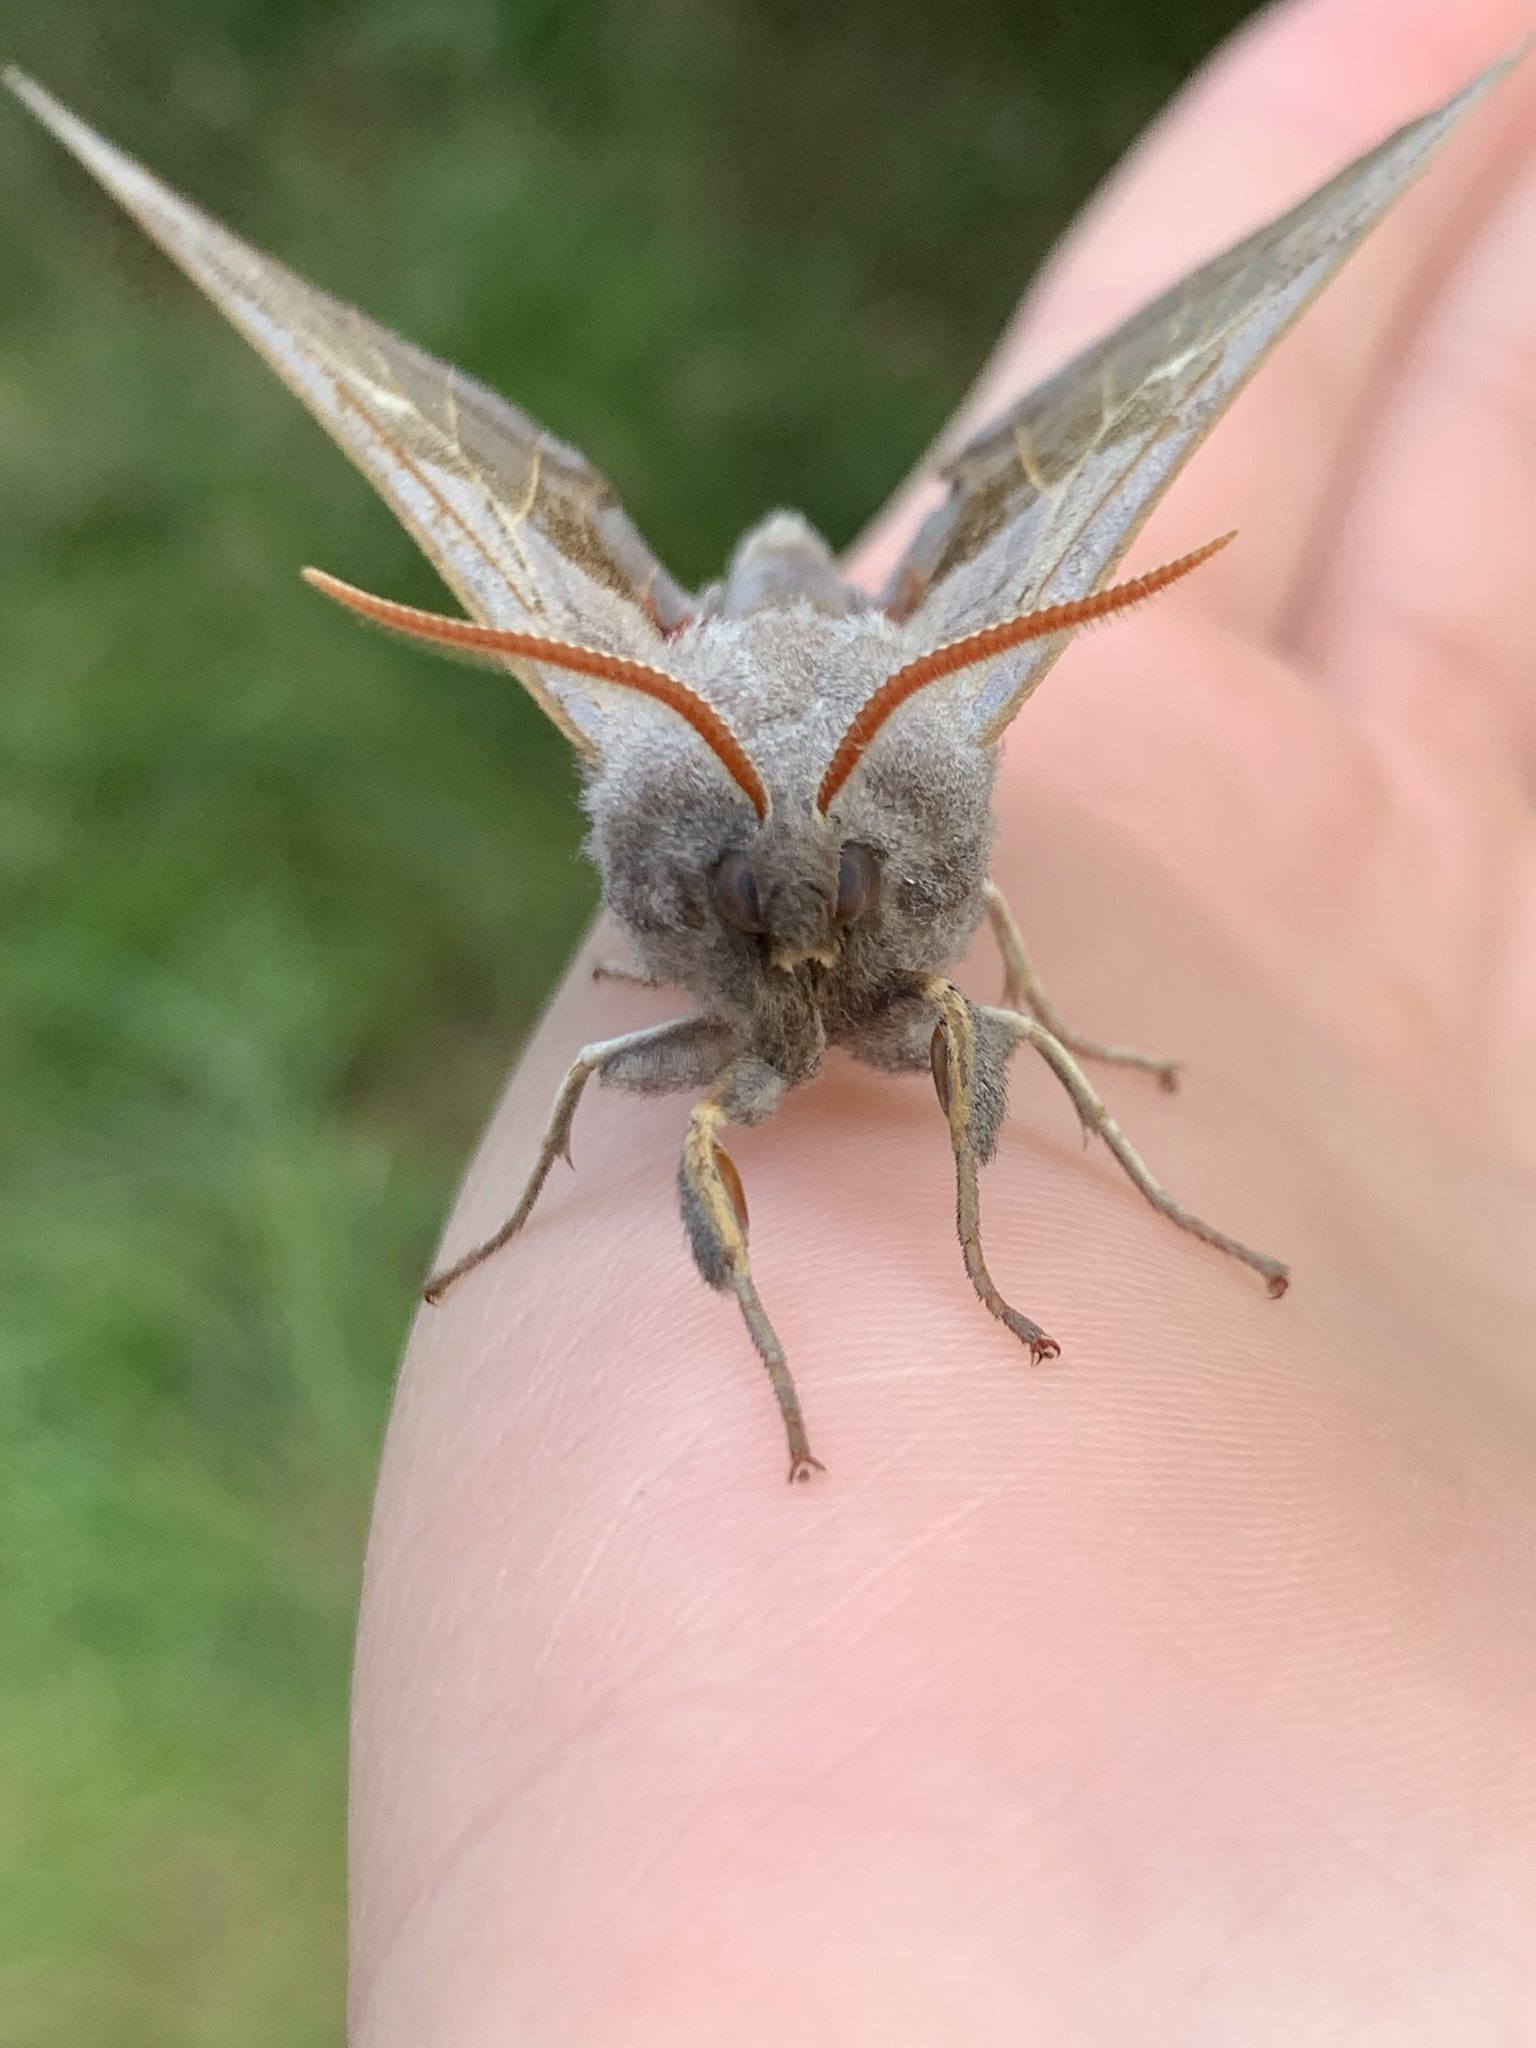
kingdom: Animalia
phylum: Arthropoda
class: Insecta
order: Lepidoptera
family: Sphingidae
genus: Laothoe
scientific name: Laothoe populi
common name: Poplar hawk-moth
